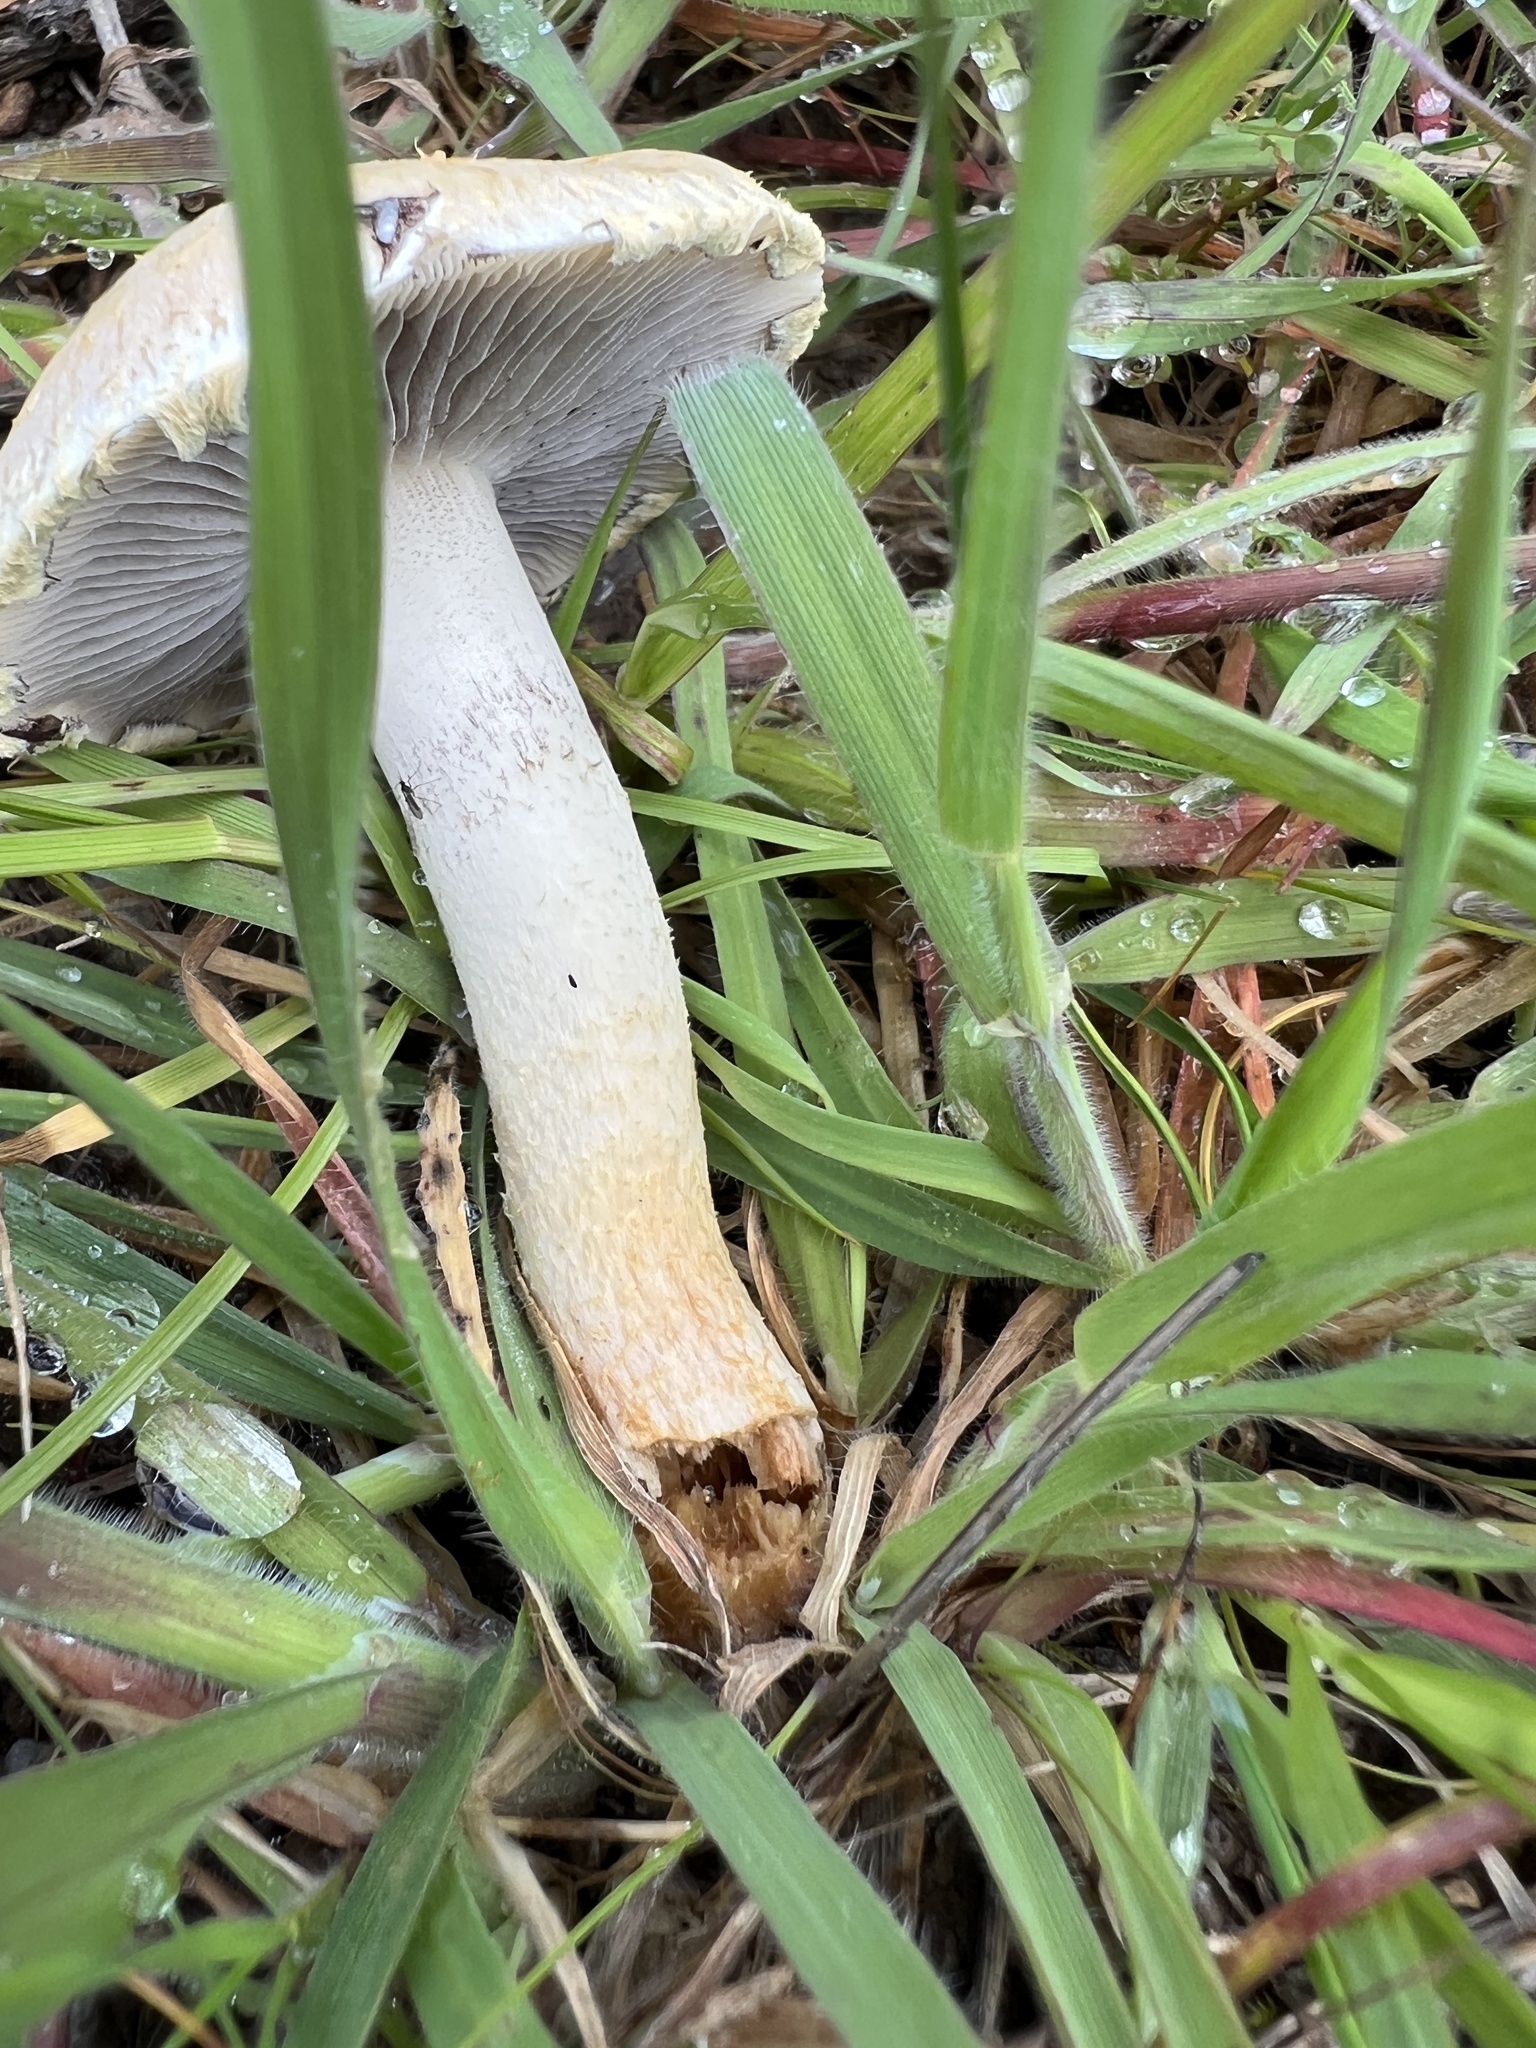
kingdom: Fungi
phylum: Basidiomycota
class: Agaricomycetes
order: Agaricales
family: Strophariaceae
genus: Leratiomyces
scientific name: Leratiomyces percevalii
